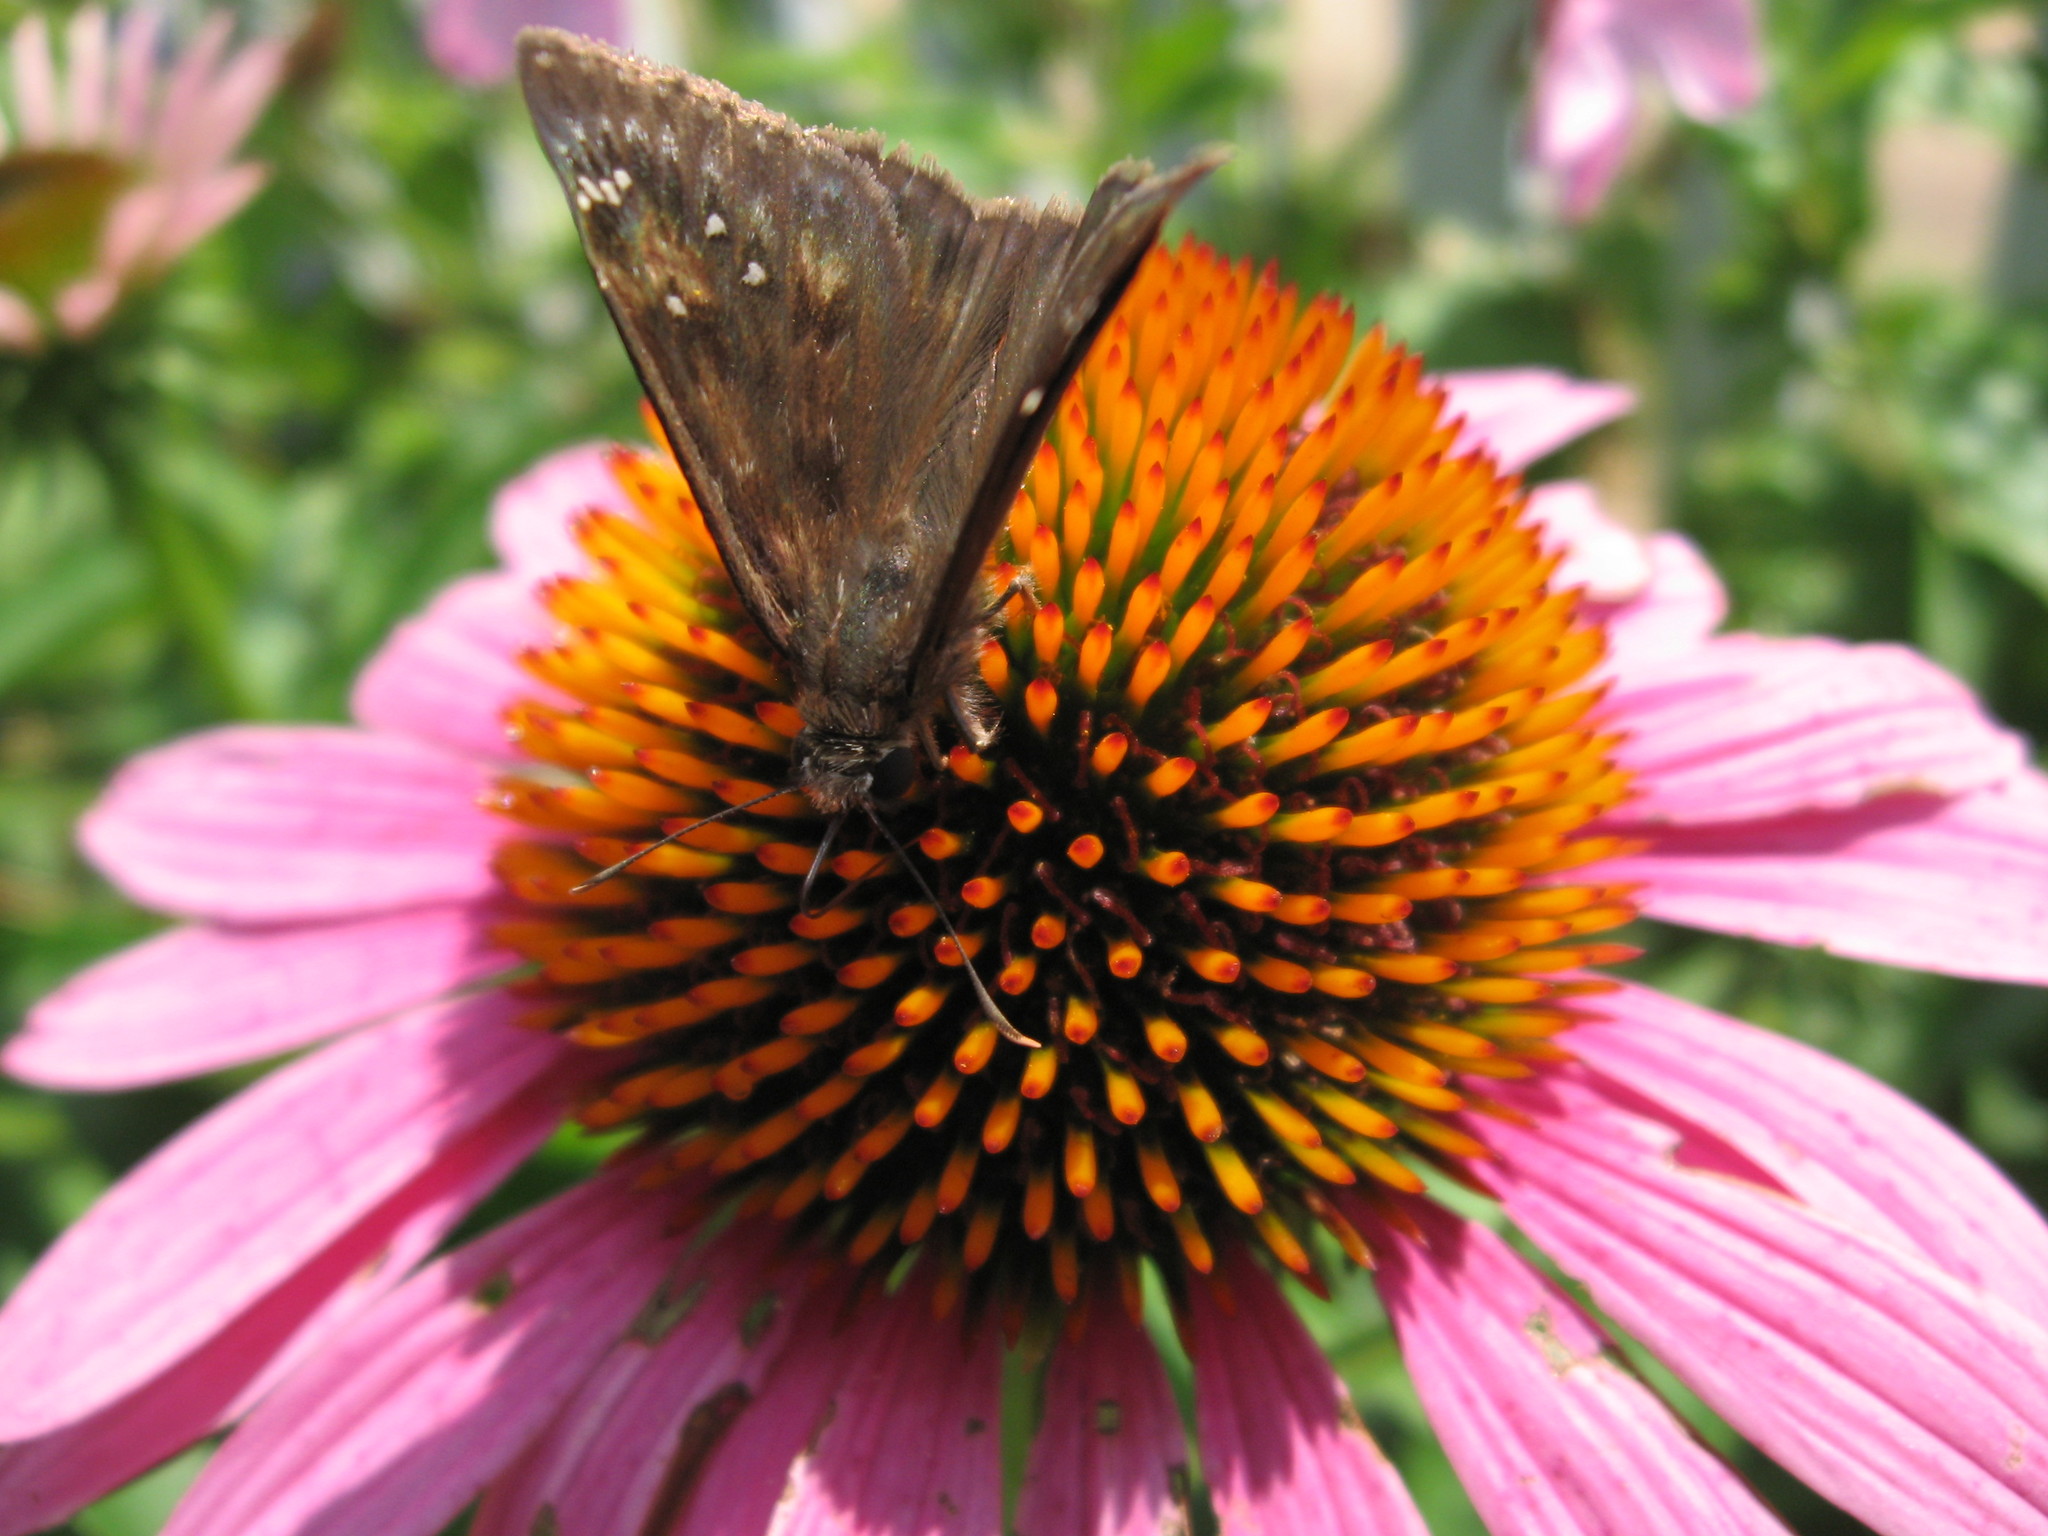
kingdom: Animalia
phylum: Arthropoda
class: Insecta
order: Lepidoptera
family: Hesperiidae
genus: Erynnis
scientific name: Erynnis horatius
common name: Horace's duskywing
